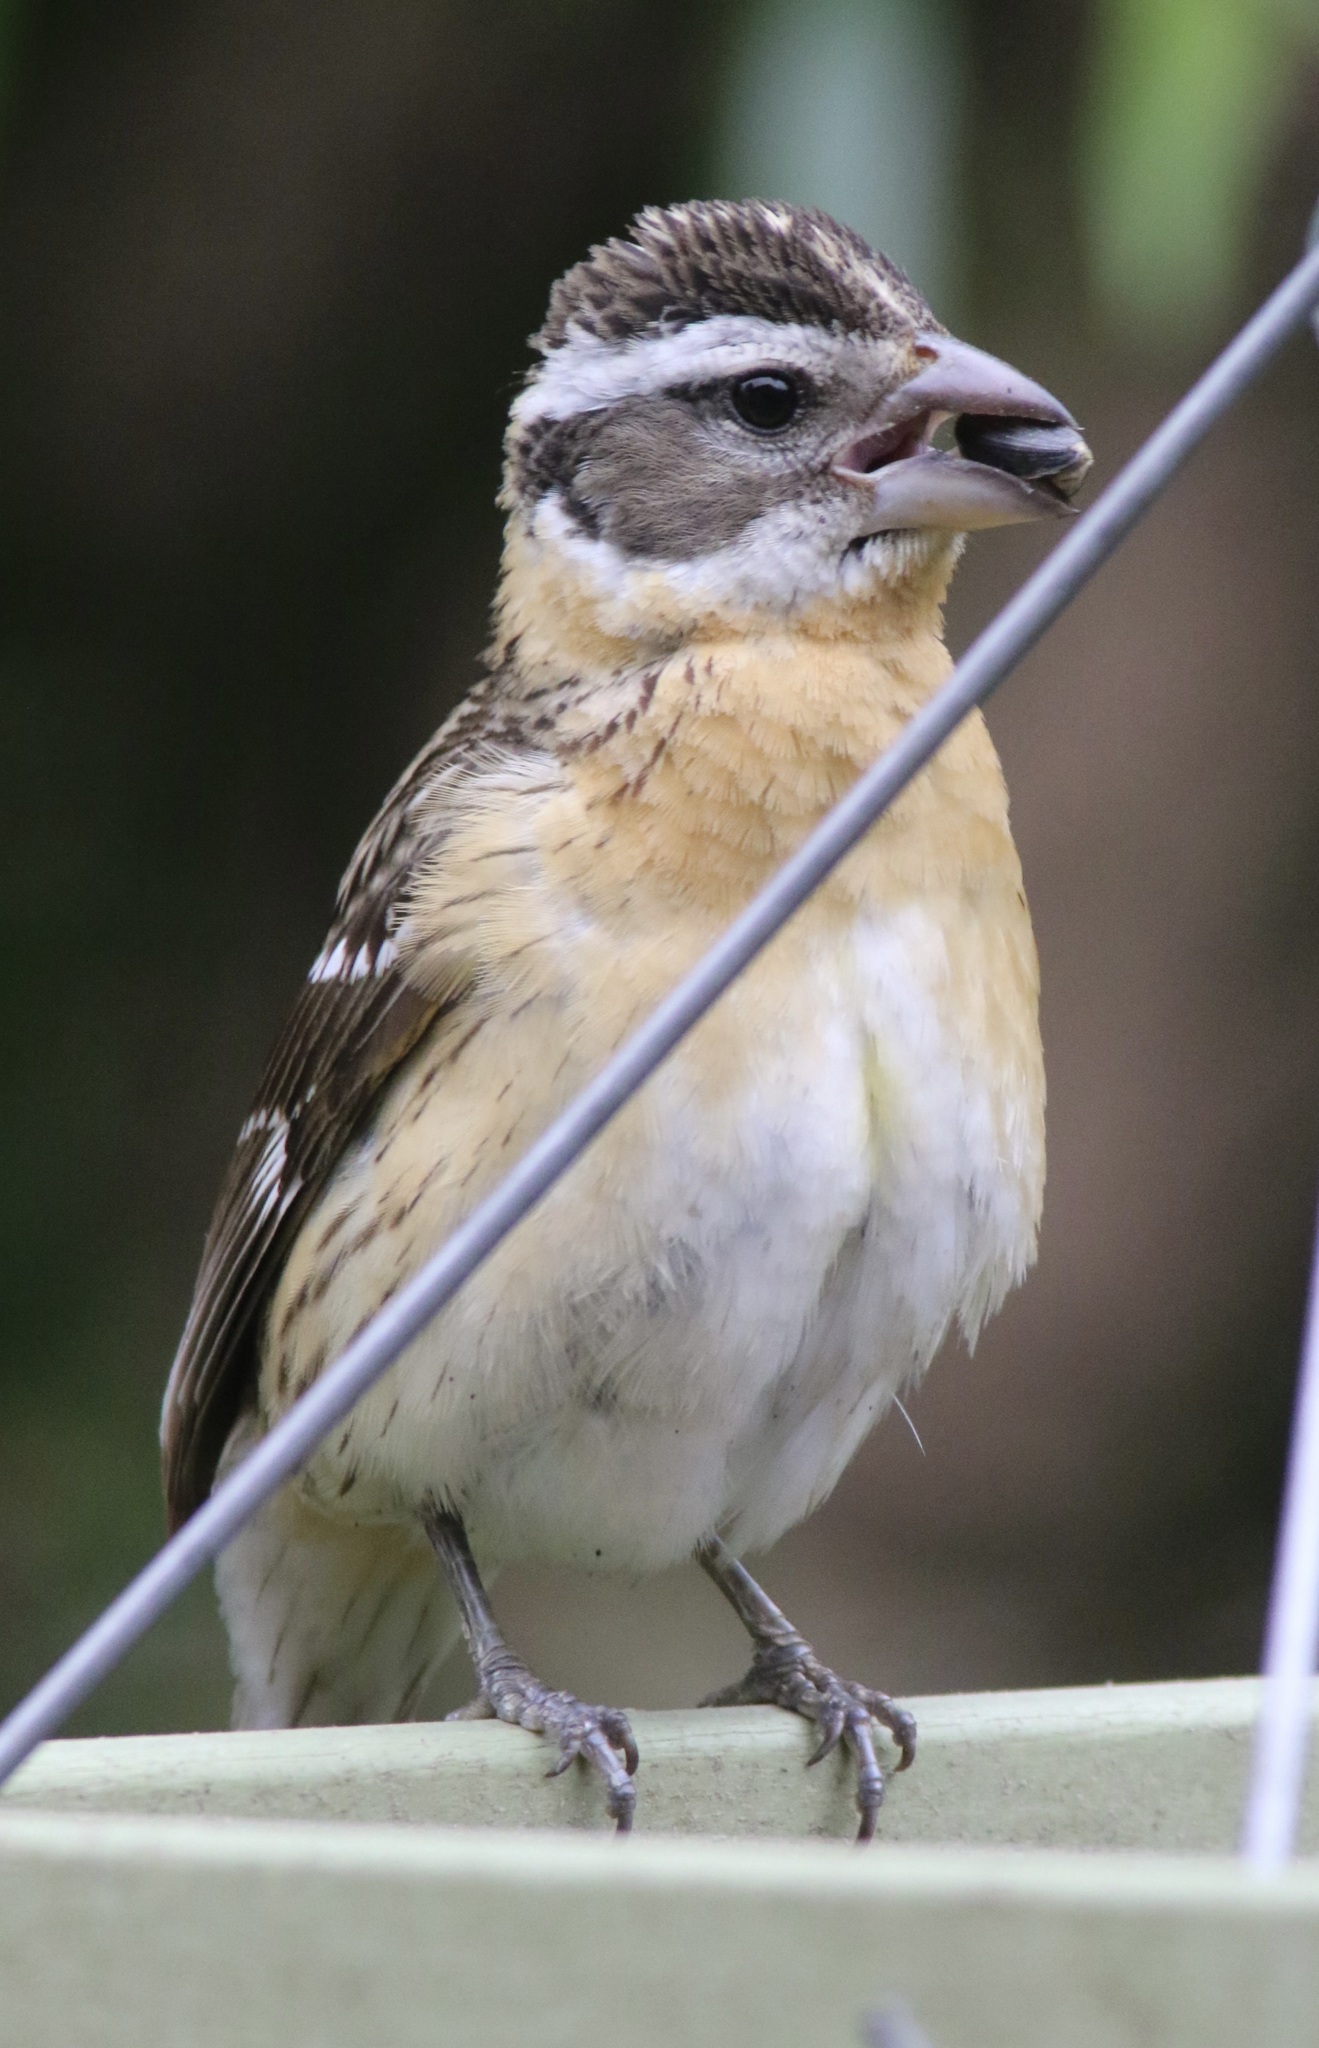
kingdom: Animalia
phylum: Chordata
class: Aves
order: Passeriformes
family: Cardinalidae
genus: Pheucticus
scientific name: Pheucticus melanocephalus
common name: Black-headed grosbeak
